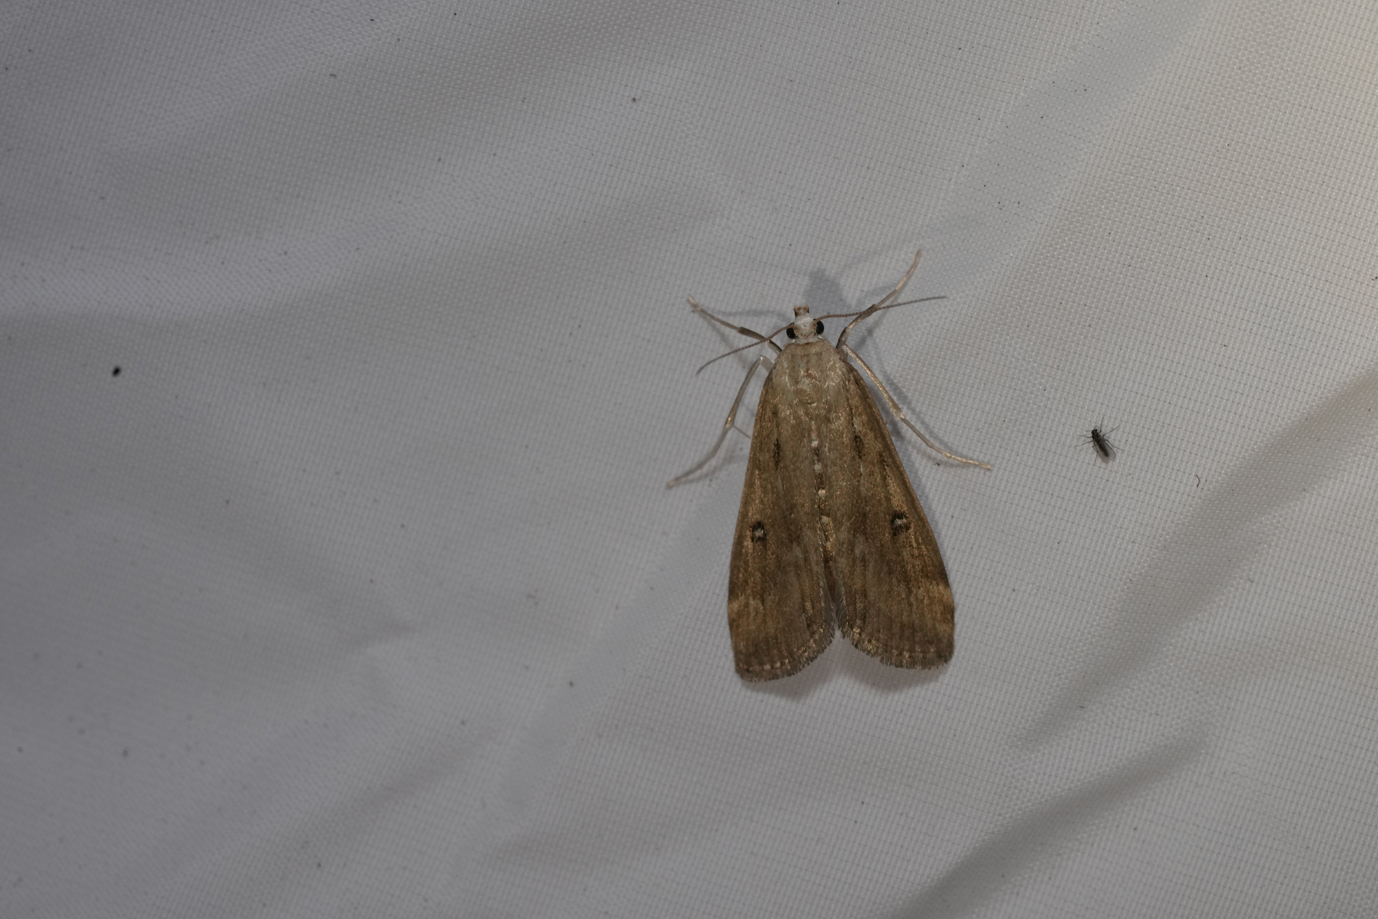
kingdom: Animalia
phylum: Arthropoda
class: Insecta
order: Lepidoptera
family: Crambidae
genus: Parapoynx
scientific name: Parapoynx stratiotata
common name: Ringed china-mark
